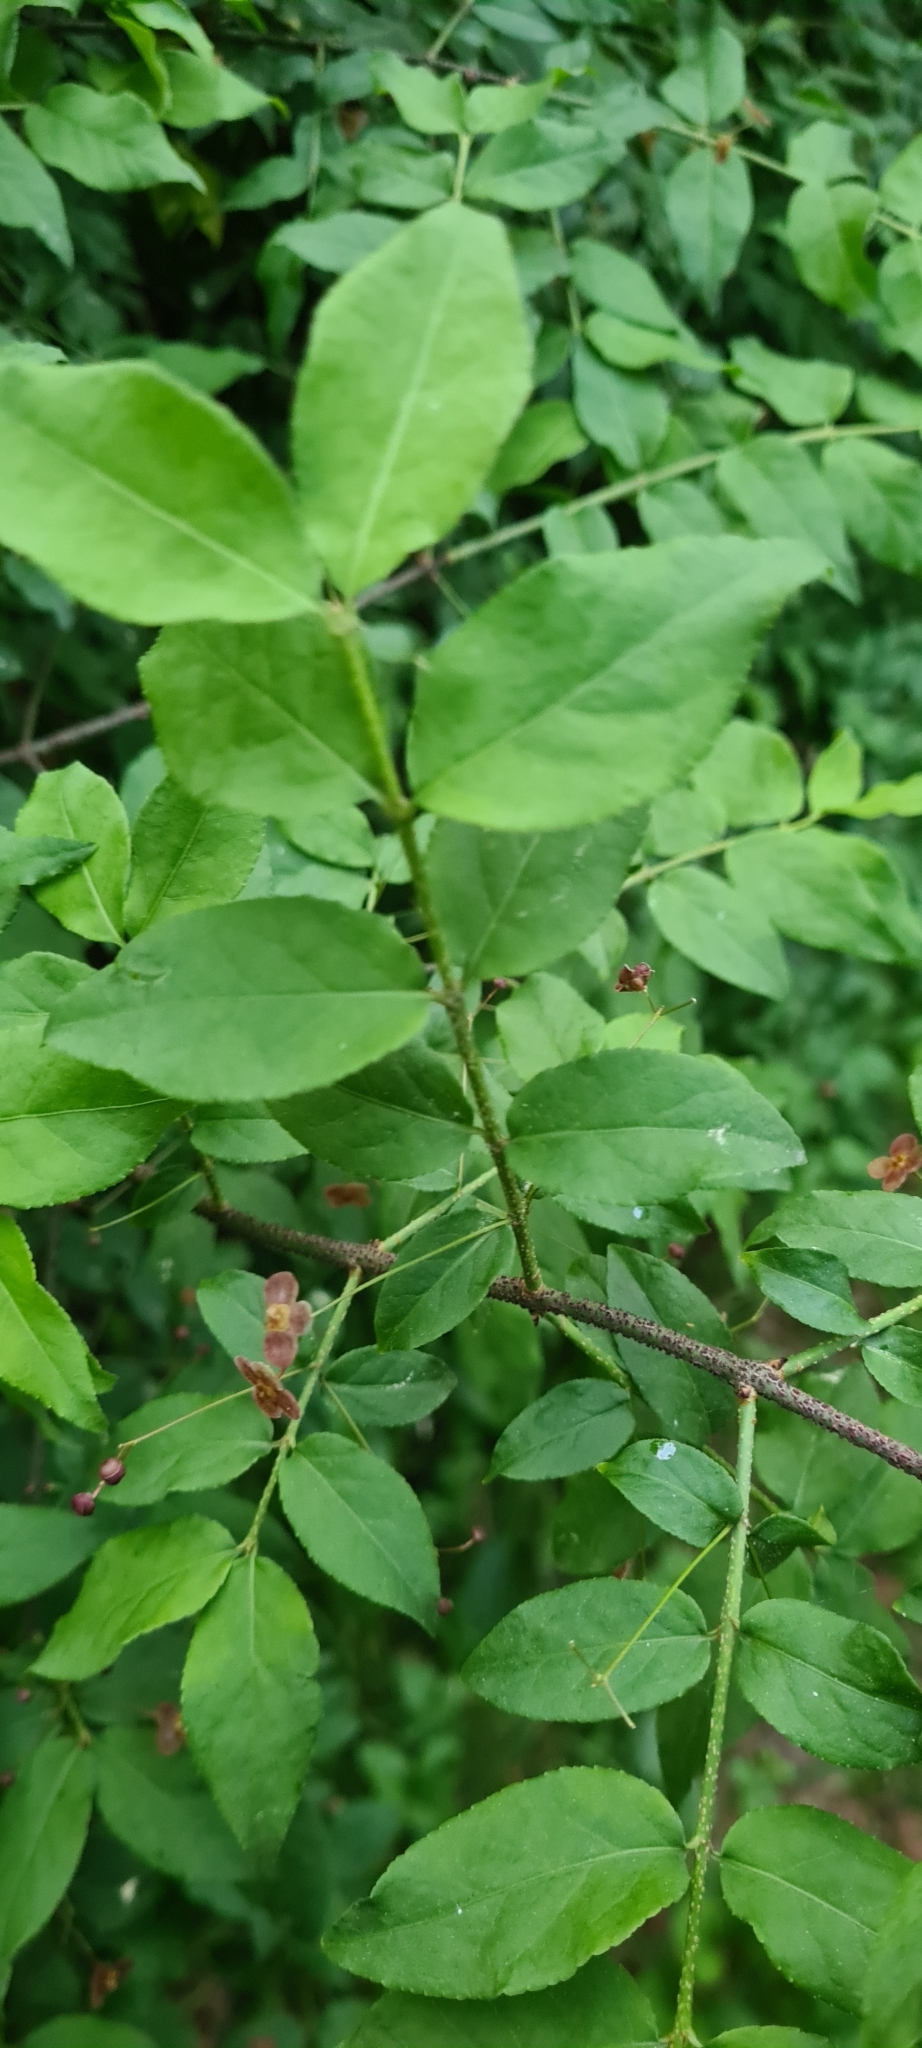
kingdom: Plantae
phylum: Tracheophyta
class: Magnoliopsida
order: Celastrales
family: Celastraceae
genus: Euonymus
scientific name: Euonymus verrucosus
